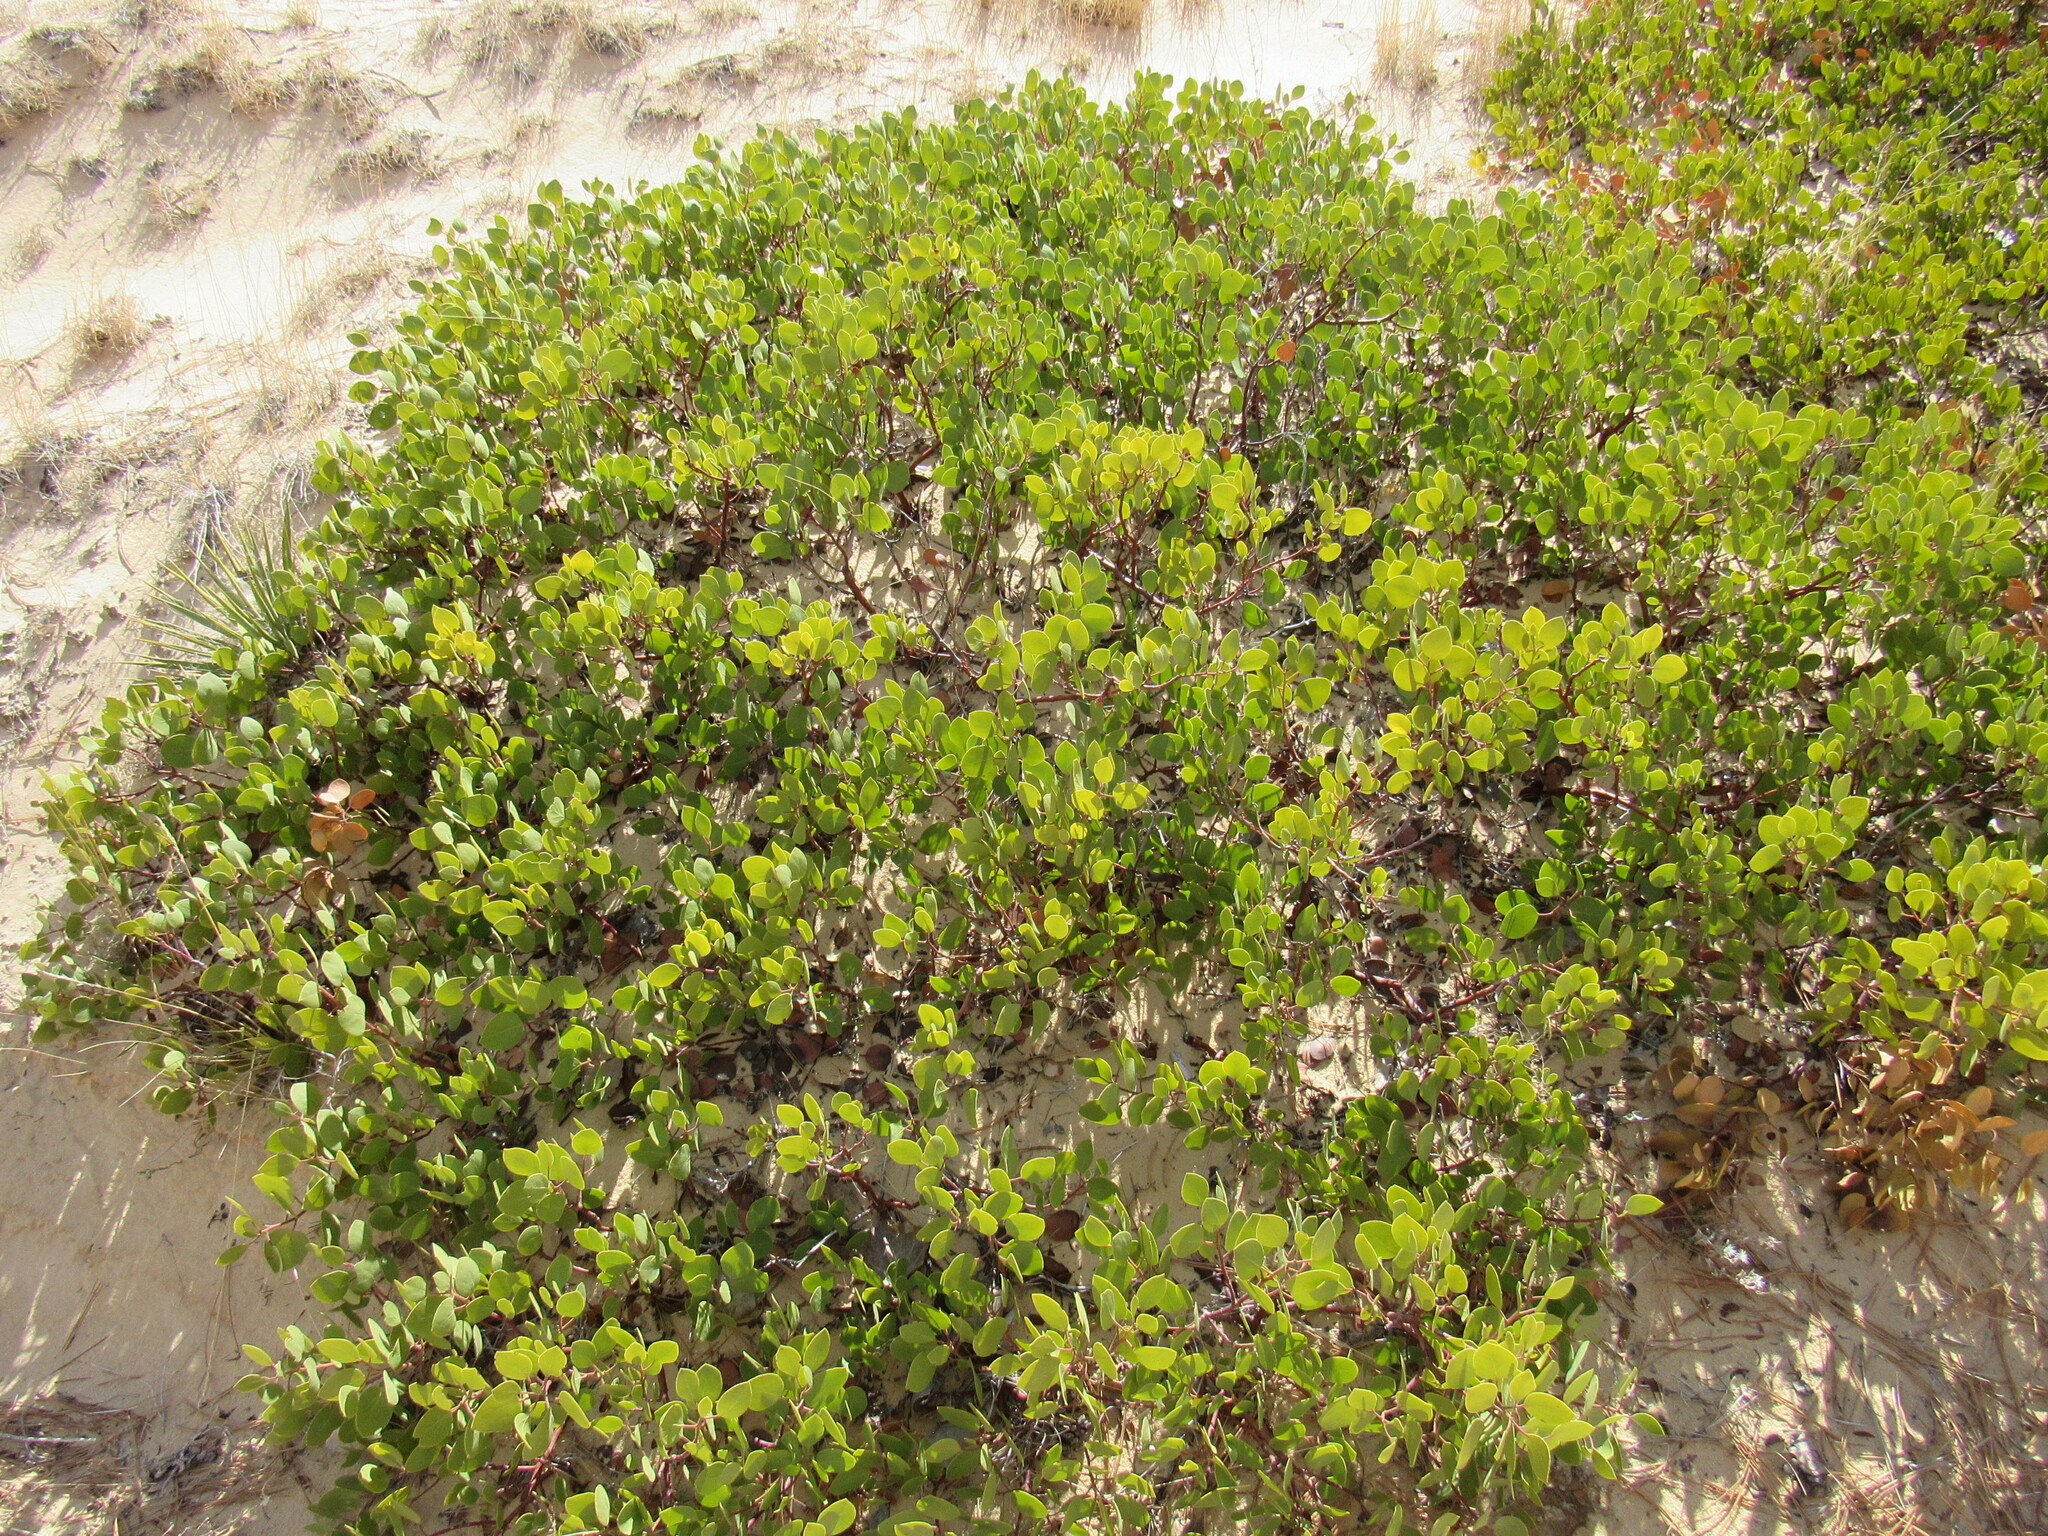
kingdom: Plantae
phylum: Tracheophyta
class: Magnoliopsida
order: Ericales
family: Ericaceae
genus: Arctostaphylos
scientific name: Arctostaphylos patula
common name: Green-leaf manzanita
